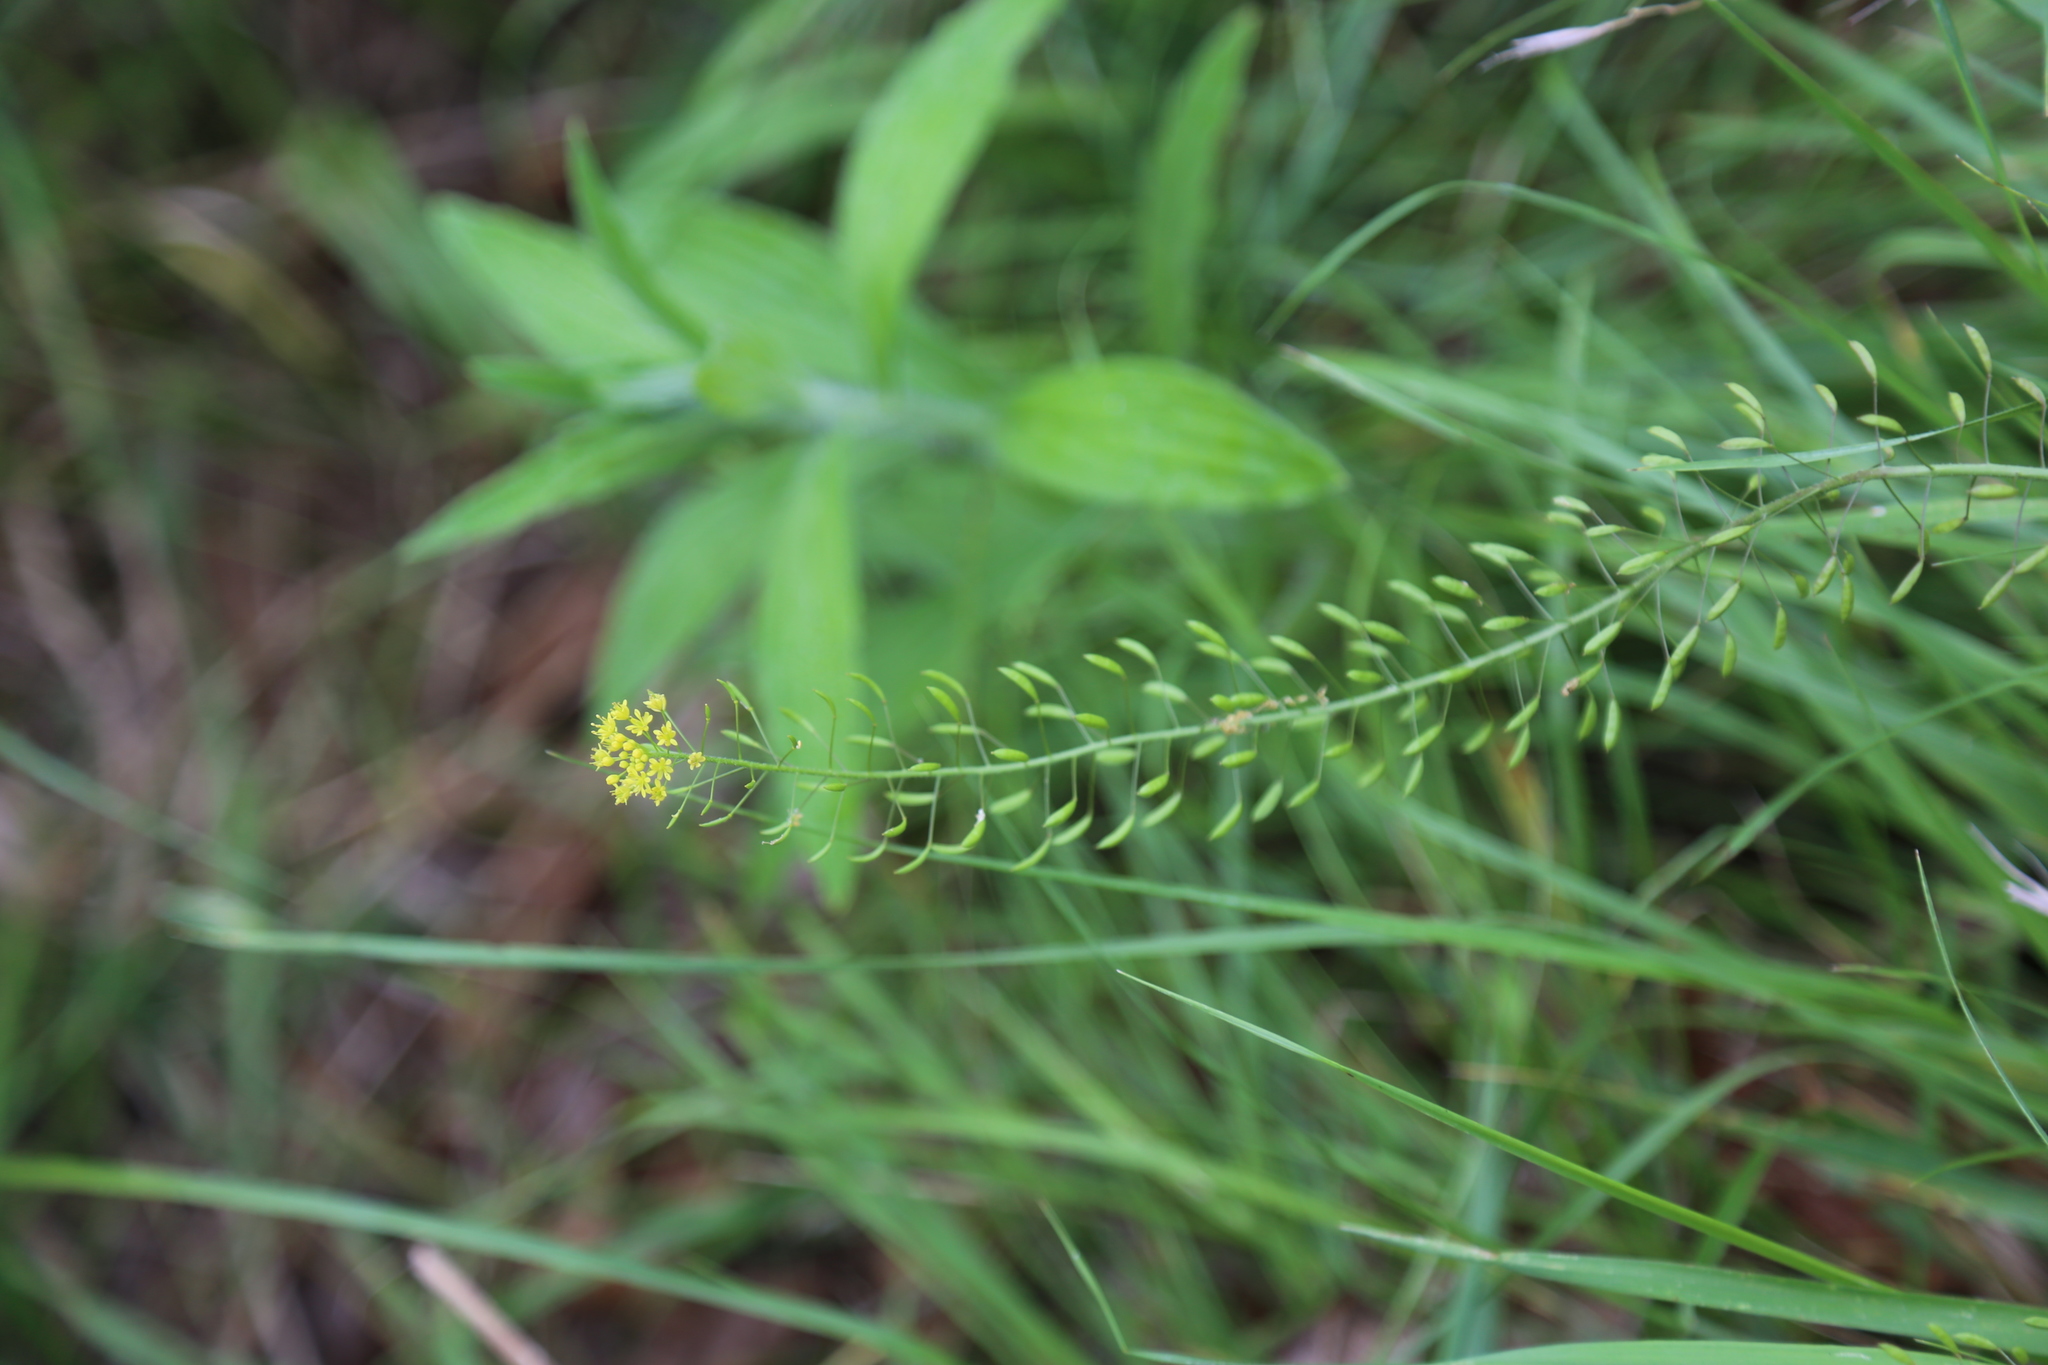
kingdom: Plantae
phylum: Tracheophyta
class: Magnoliopsida
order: Brassicales
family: Brassicaceae
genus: Descurainia
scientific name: Descurainia pinnata
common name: Western tansy mustard
